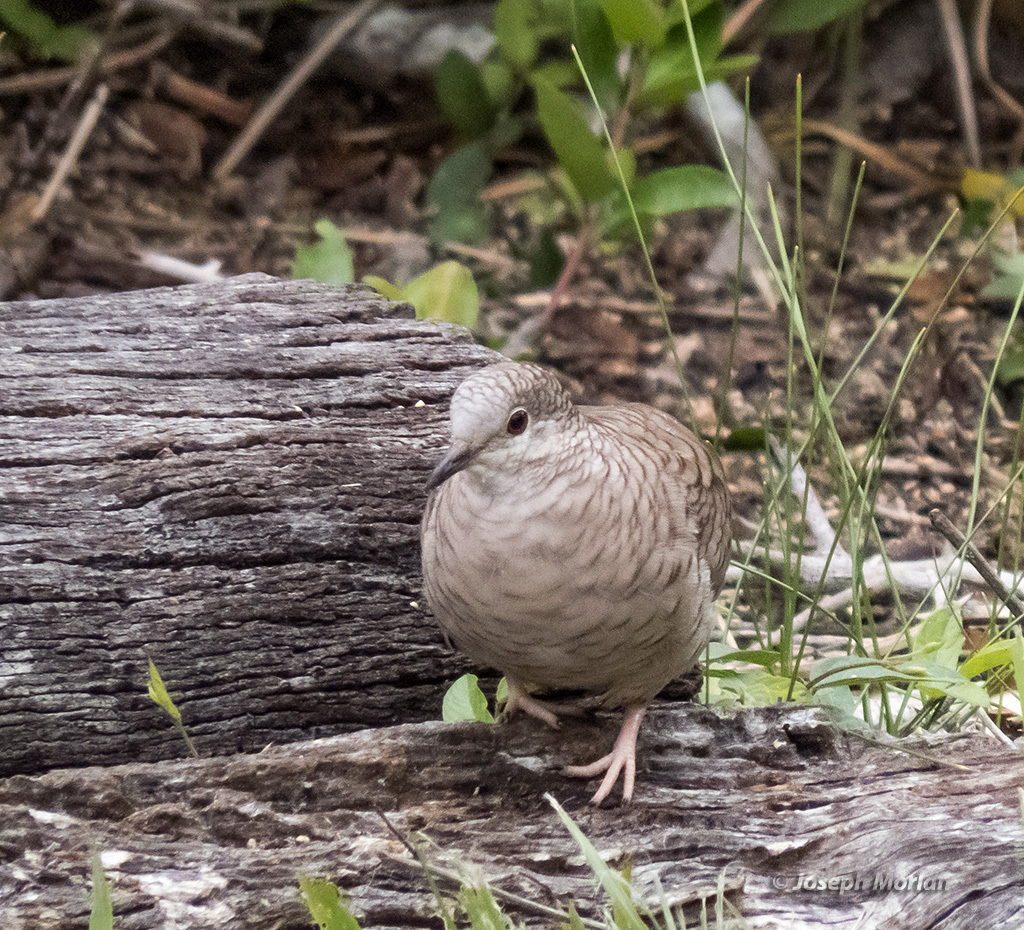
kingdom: Animalia
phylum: Chordata
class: Aves
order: Columbiformes
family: Columbidae
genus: Columbina
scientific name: Columbina inca
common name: Inca dove
